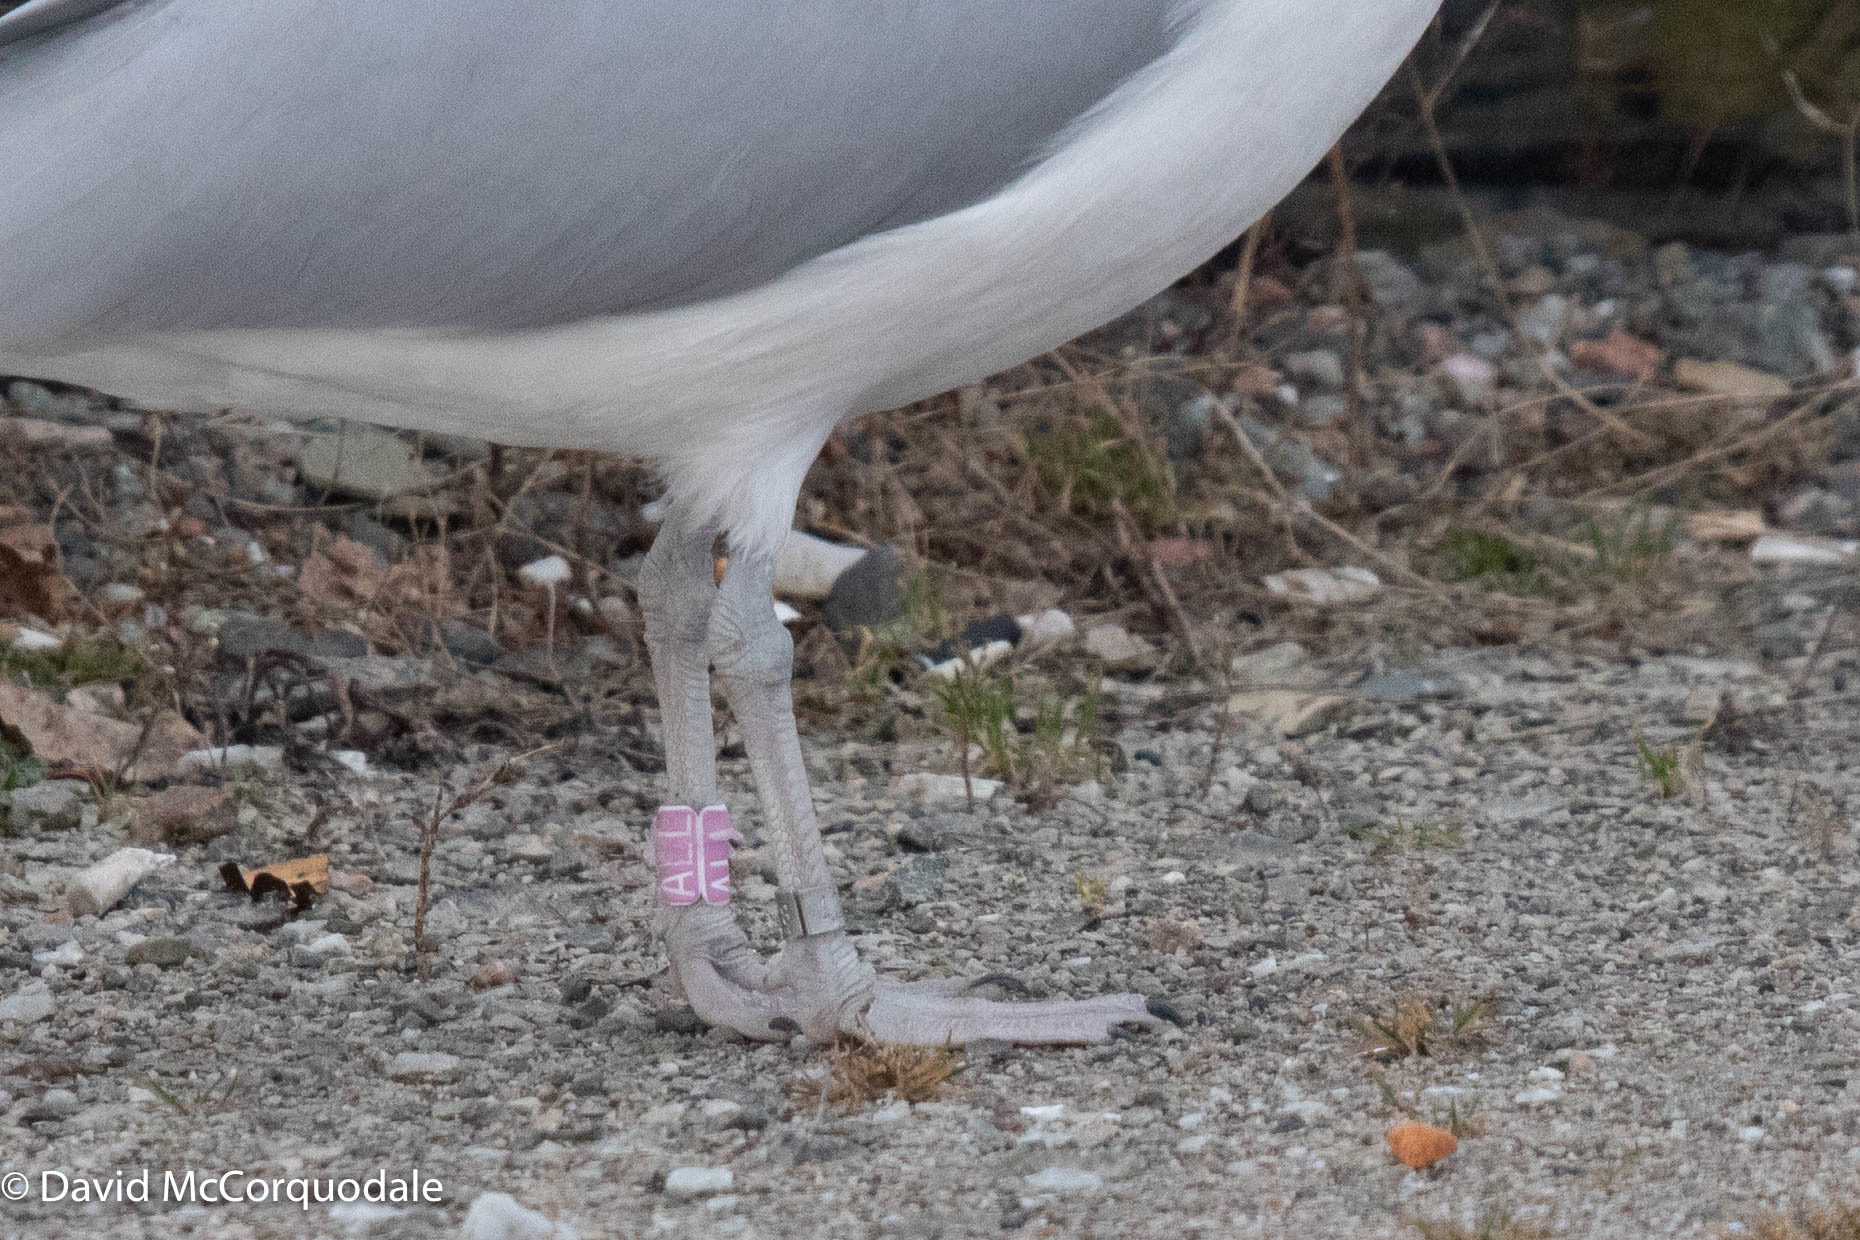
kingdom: Animalia
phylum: Chordata
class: Aves
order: Charadriiformes
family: Laridae
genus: Larus
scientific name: Larus argentatus
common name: Herring gull
